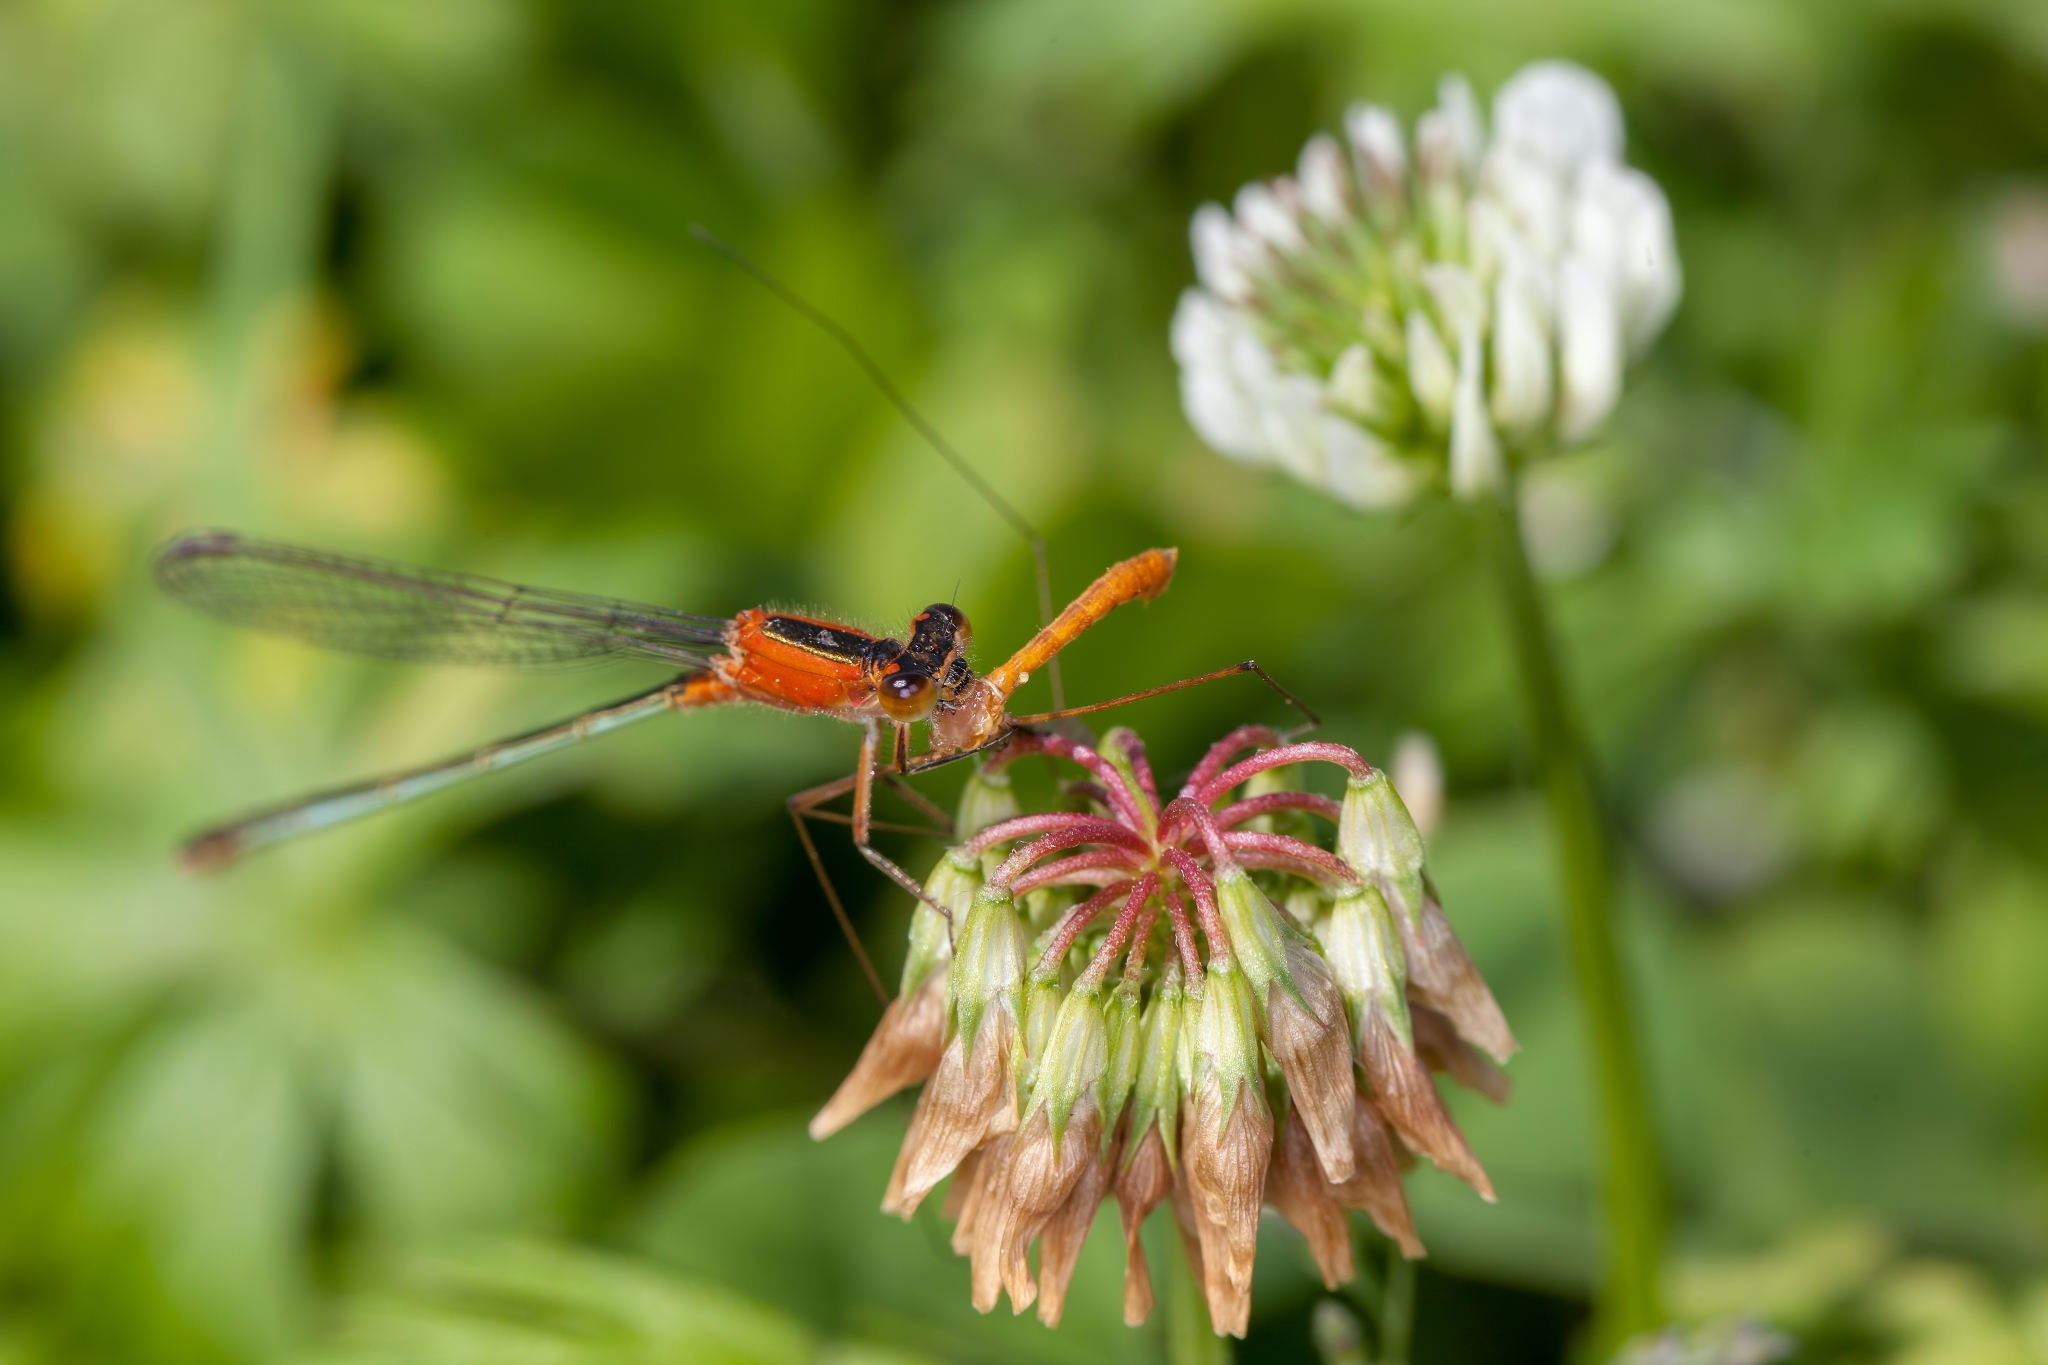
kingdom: Animalia
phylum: Arthropoda
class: Insecta
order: Odonata
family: Coenagrionidae
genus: Ischnura
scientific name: Ischnura ramburii
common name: Rambur's forktail
